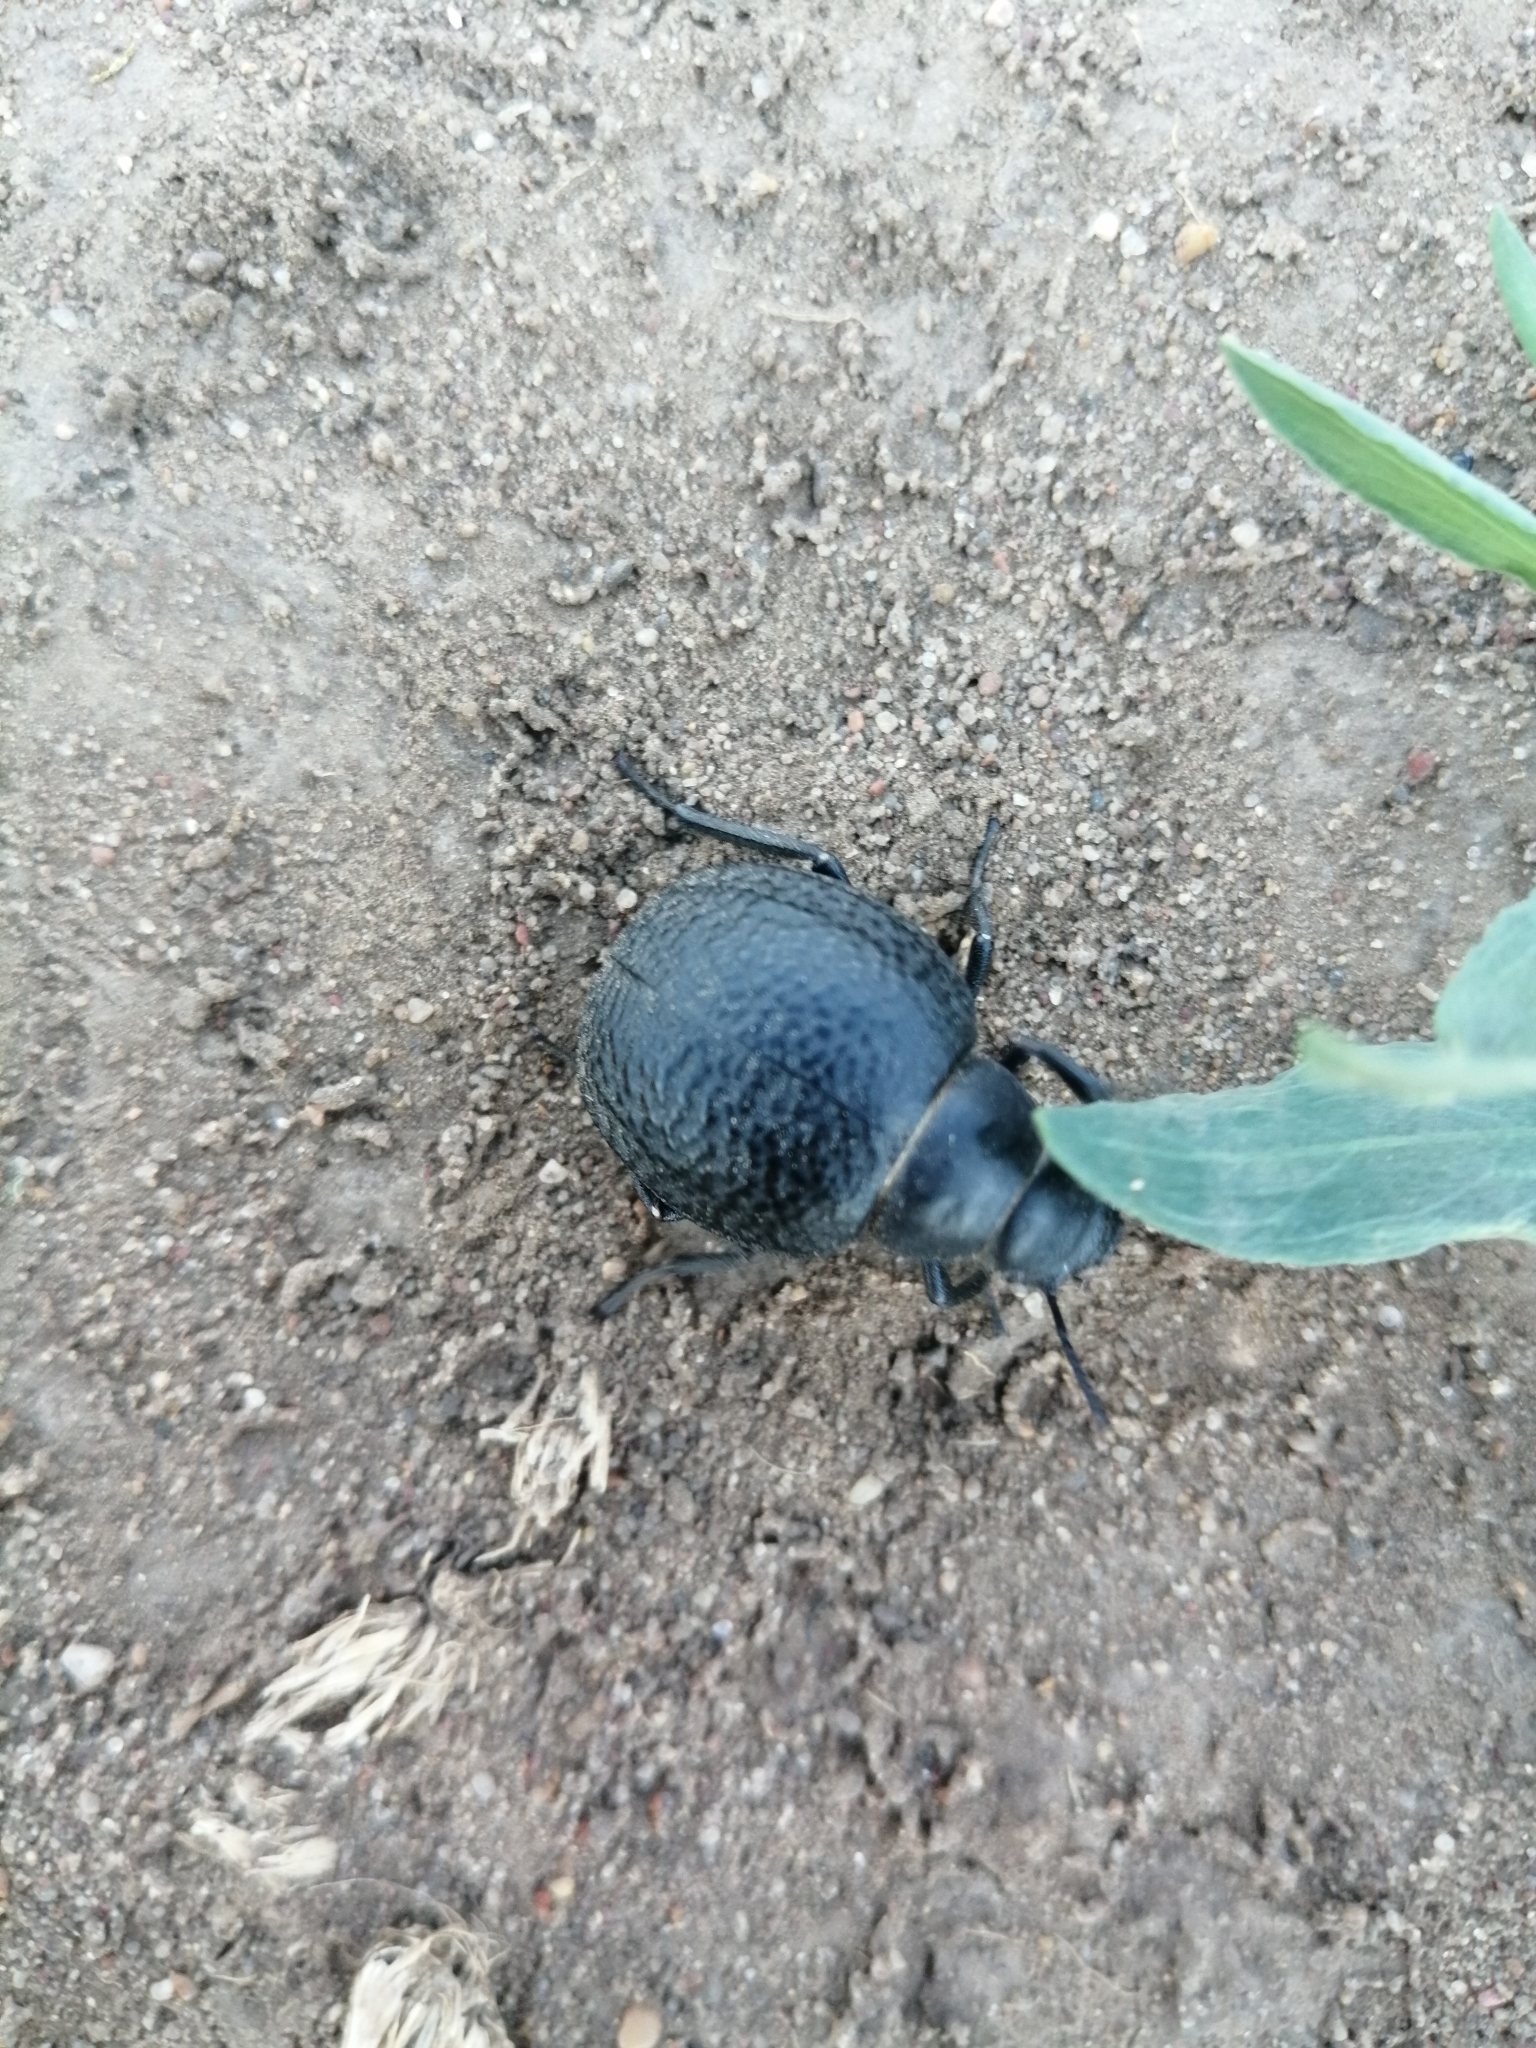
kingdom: Animalia
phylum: Arthropoda
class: Insecta
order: Coleoptera
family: Tenebrionidae
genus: Pimelia
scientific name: Pimelia subglobosa
